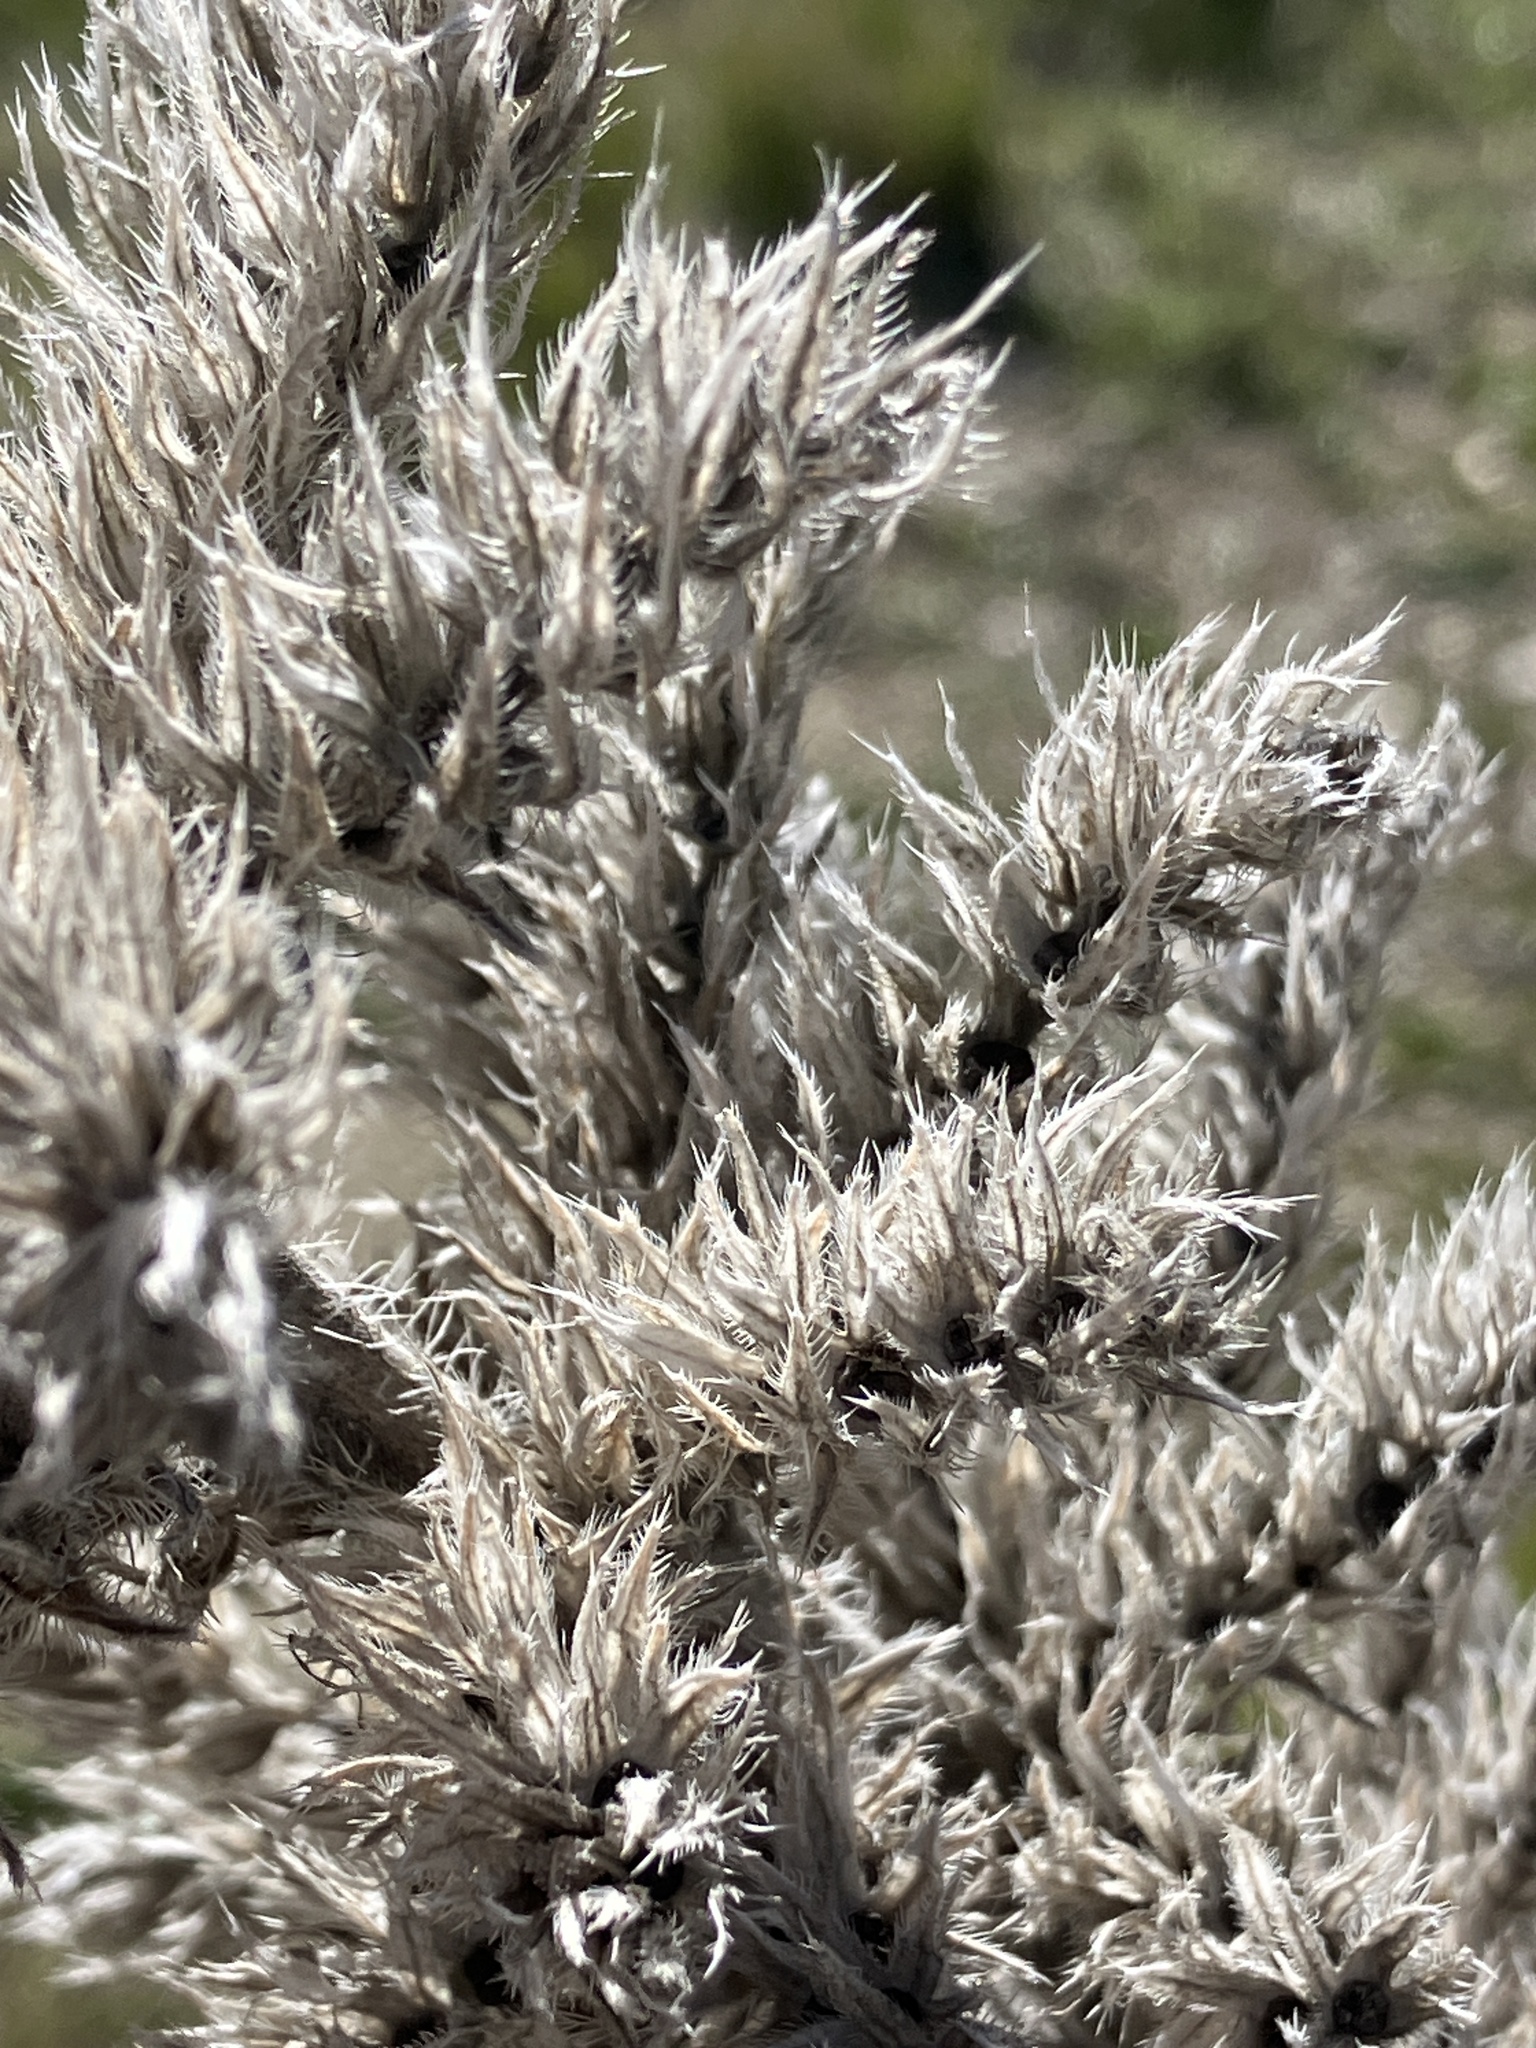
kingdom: Plantae
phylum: Tracheophyta
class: Magnoliopsida
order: Boraginales
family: Boraginaceae
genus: Echium
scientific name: Echium boissieri
